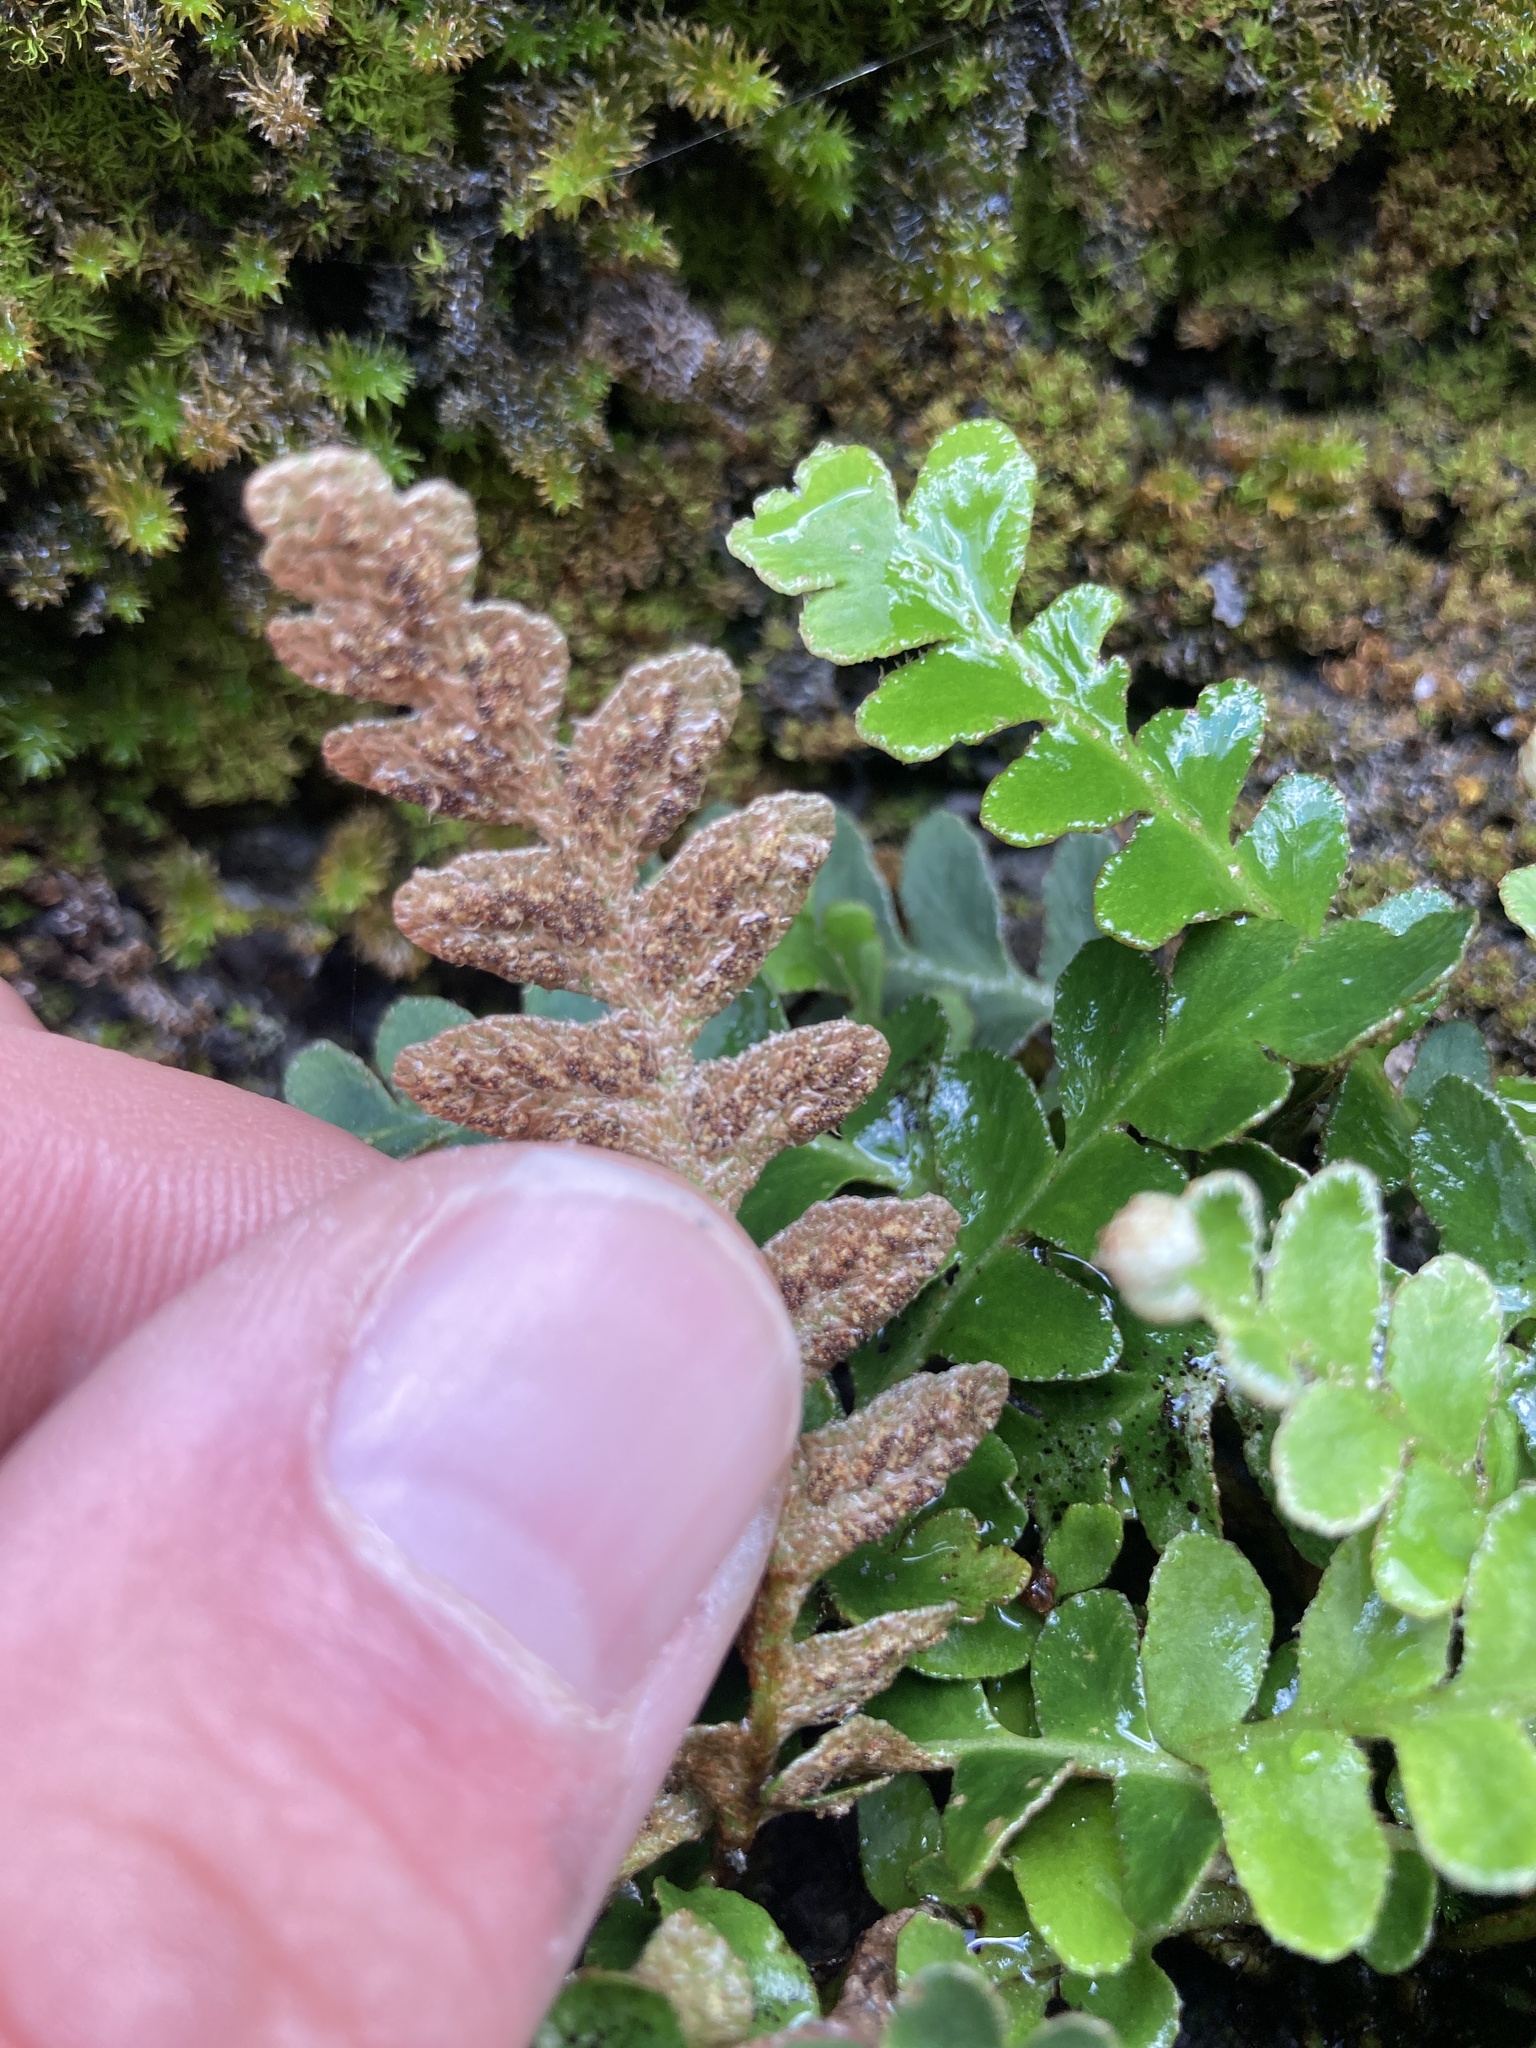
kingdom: Plantae
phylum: Tracheophyta
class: Polypodiopsida
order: Polypodiales
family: Aspleniaceae
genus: Asplenium
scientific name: Asplenium ceterach
